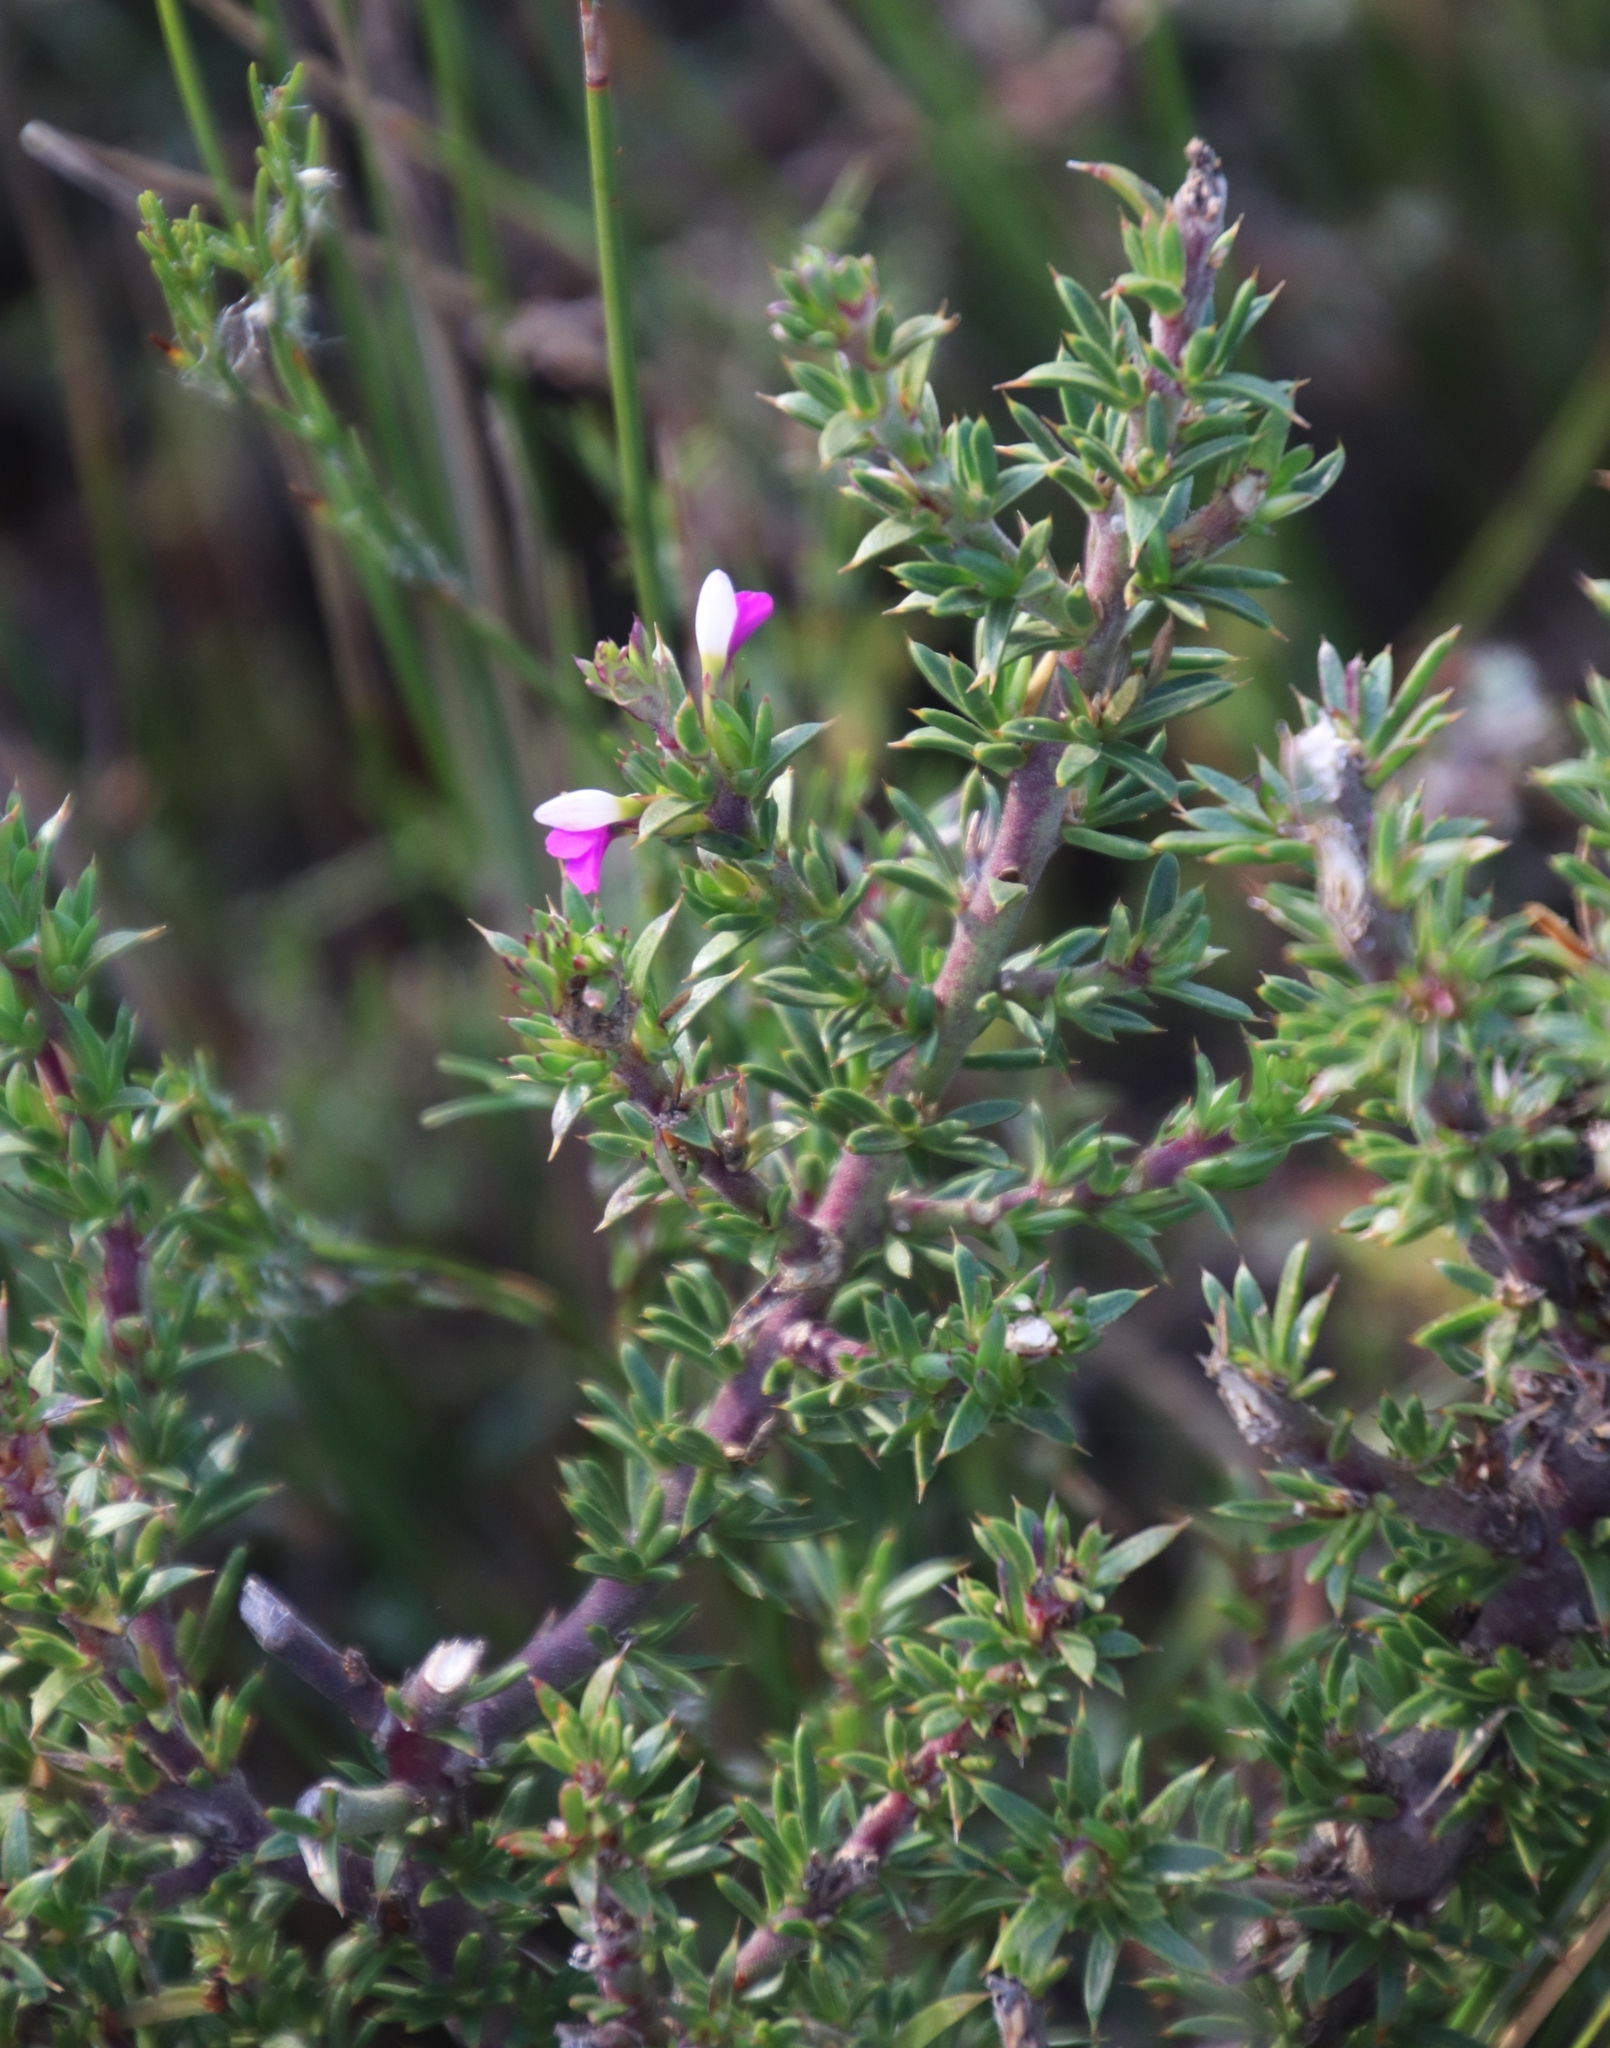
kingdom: Plantae
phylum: Tracheophyta
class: Magnoliopsida
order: Fabales
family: Polygalaceae
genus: Muraltia
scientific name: Muraltia heisteria
